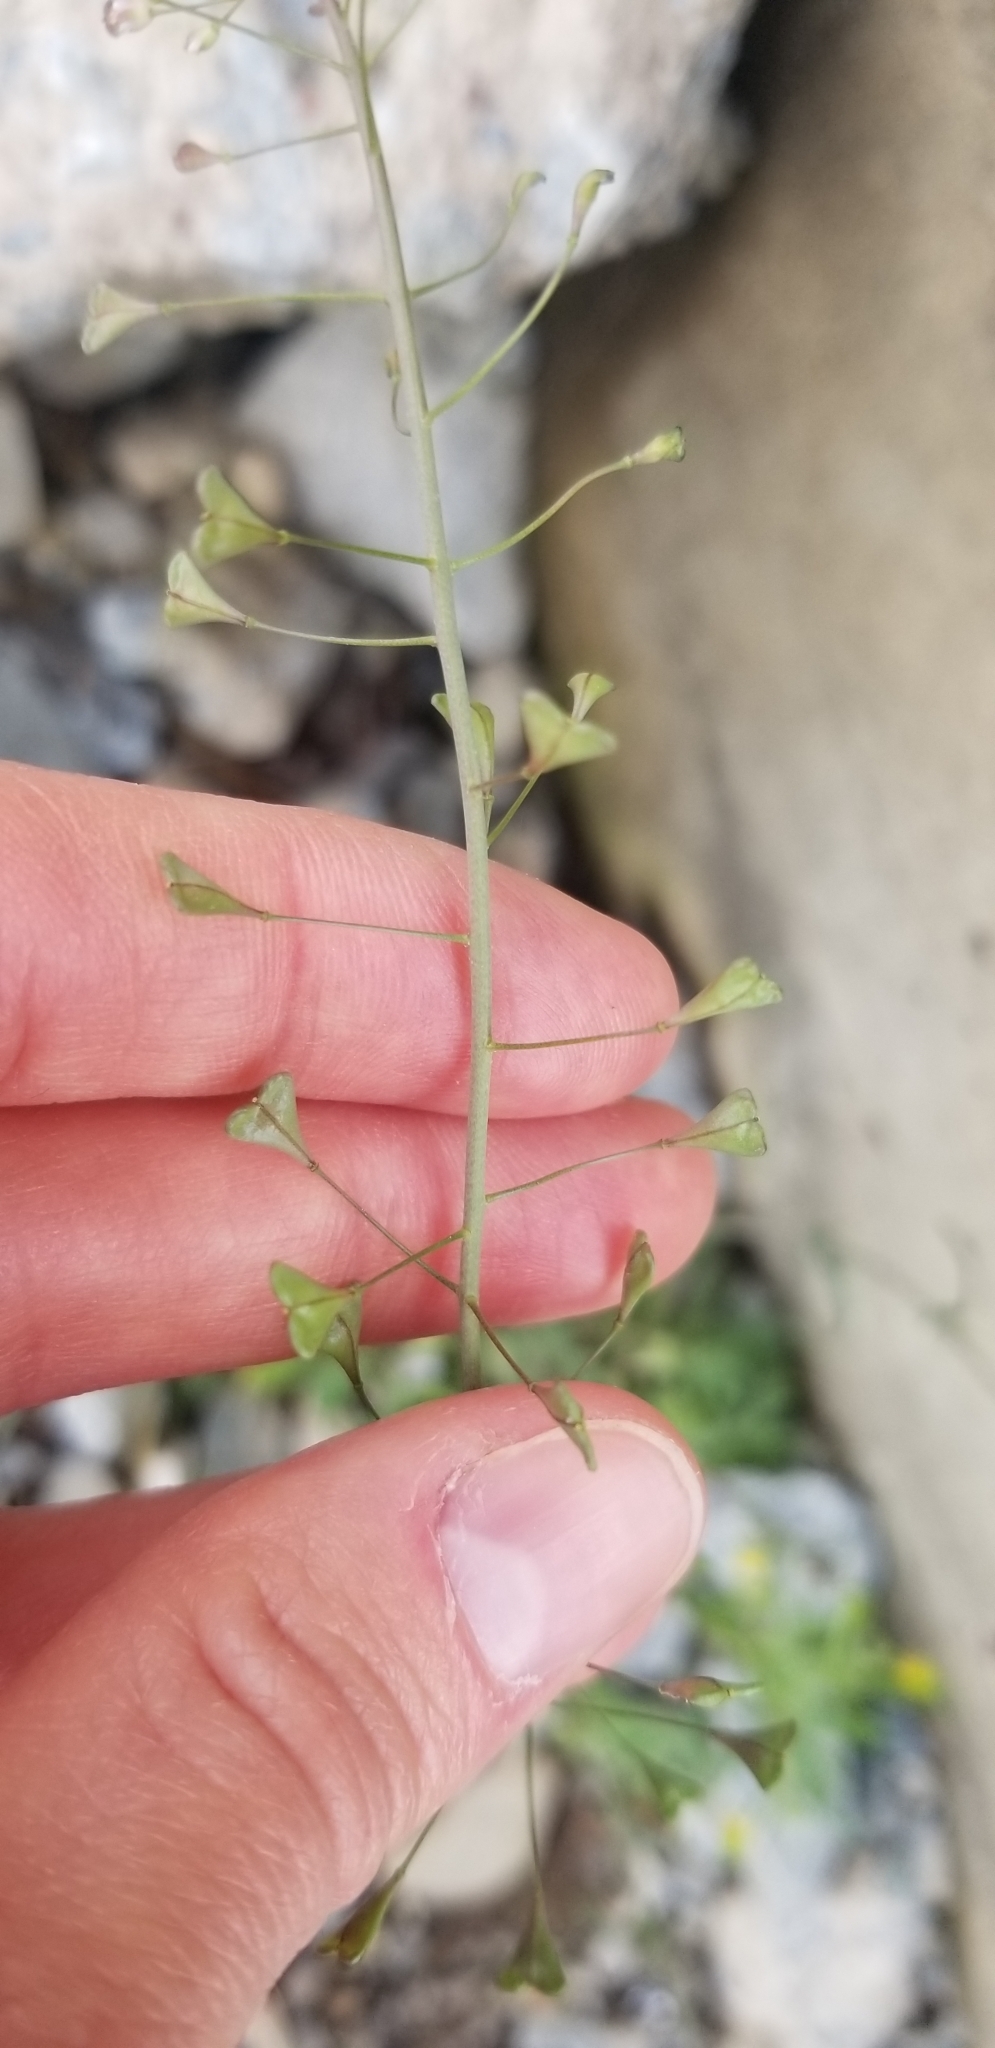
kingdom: Plantae
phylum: Tracheophyta
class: Magnoliopsida
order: Brassicales
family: Brassicaceae
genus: Capsella
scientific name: Capsella bursa-pastoris
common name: Shepherd's purse
